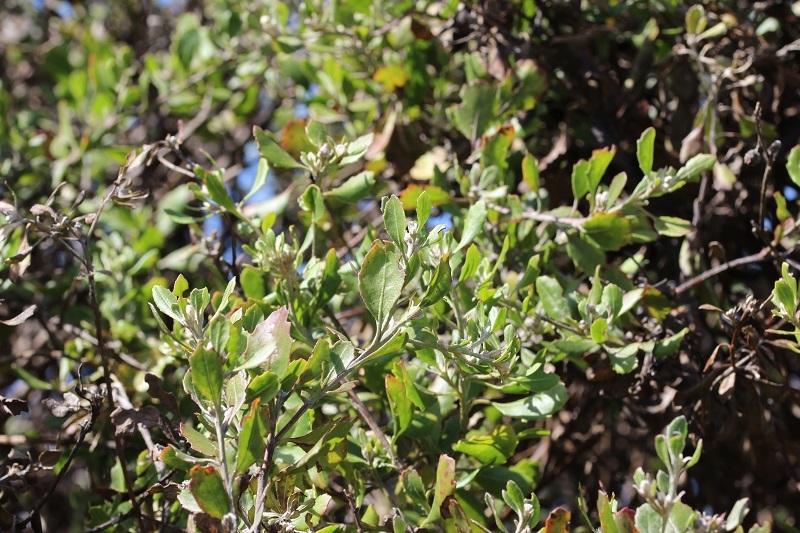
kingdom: Plantae
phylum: Tracheophyta
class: Magnoliopsida
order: Asterales
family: Asteraceae
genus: Osteospermum
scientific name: Osteospermum moniliferum
